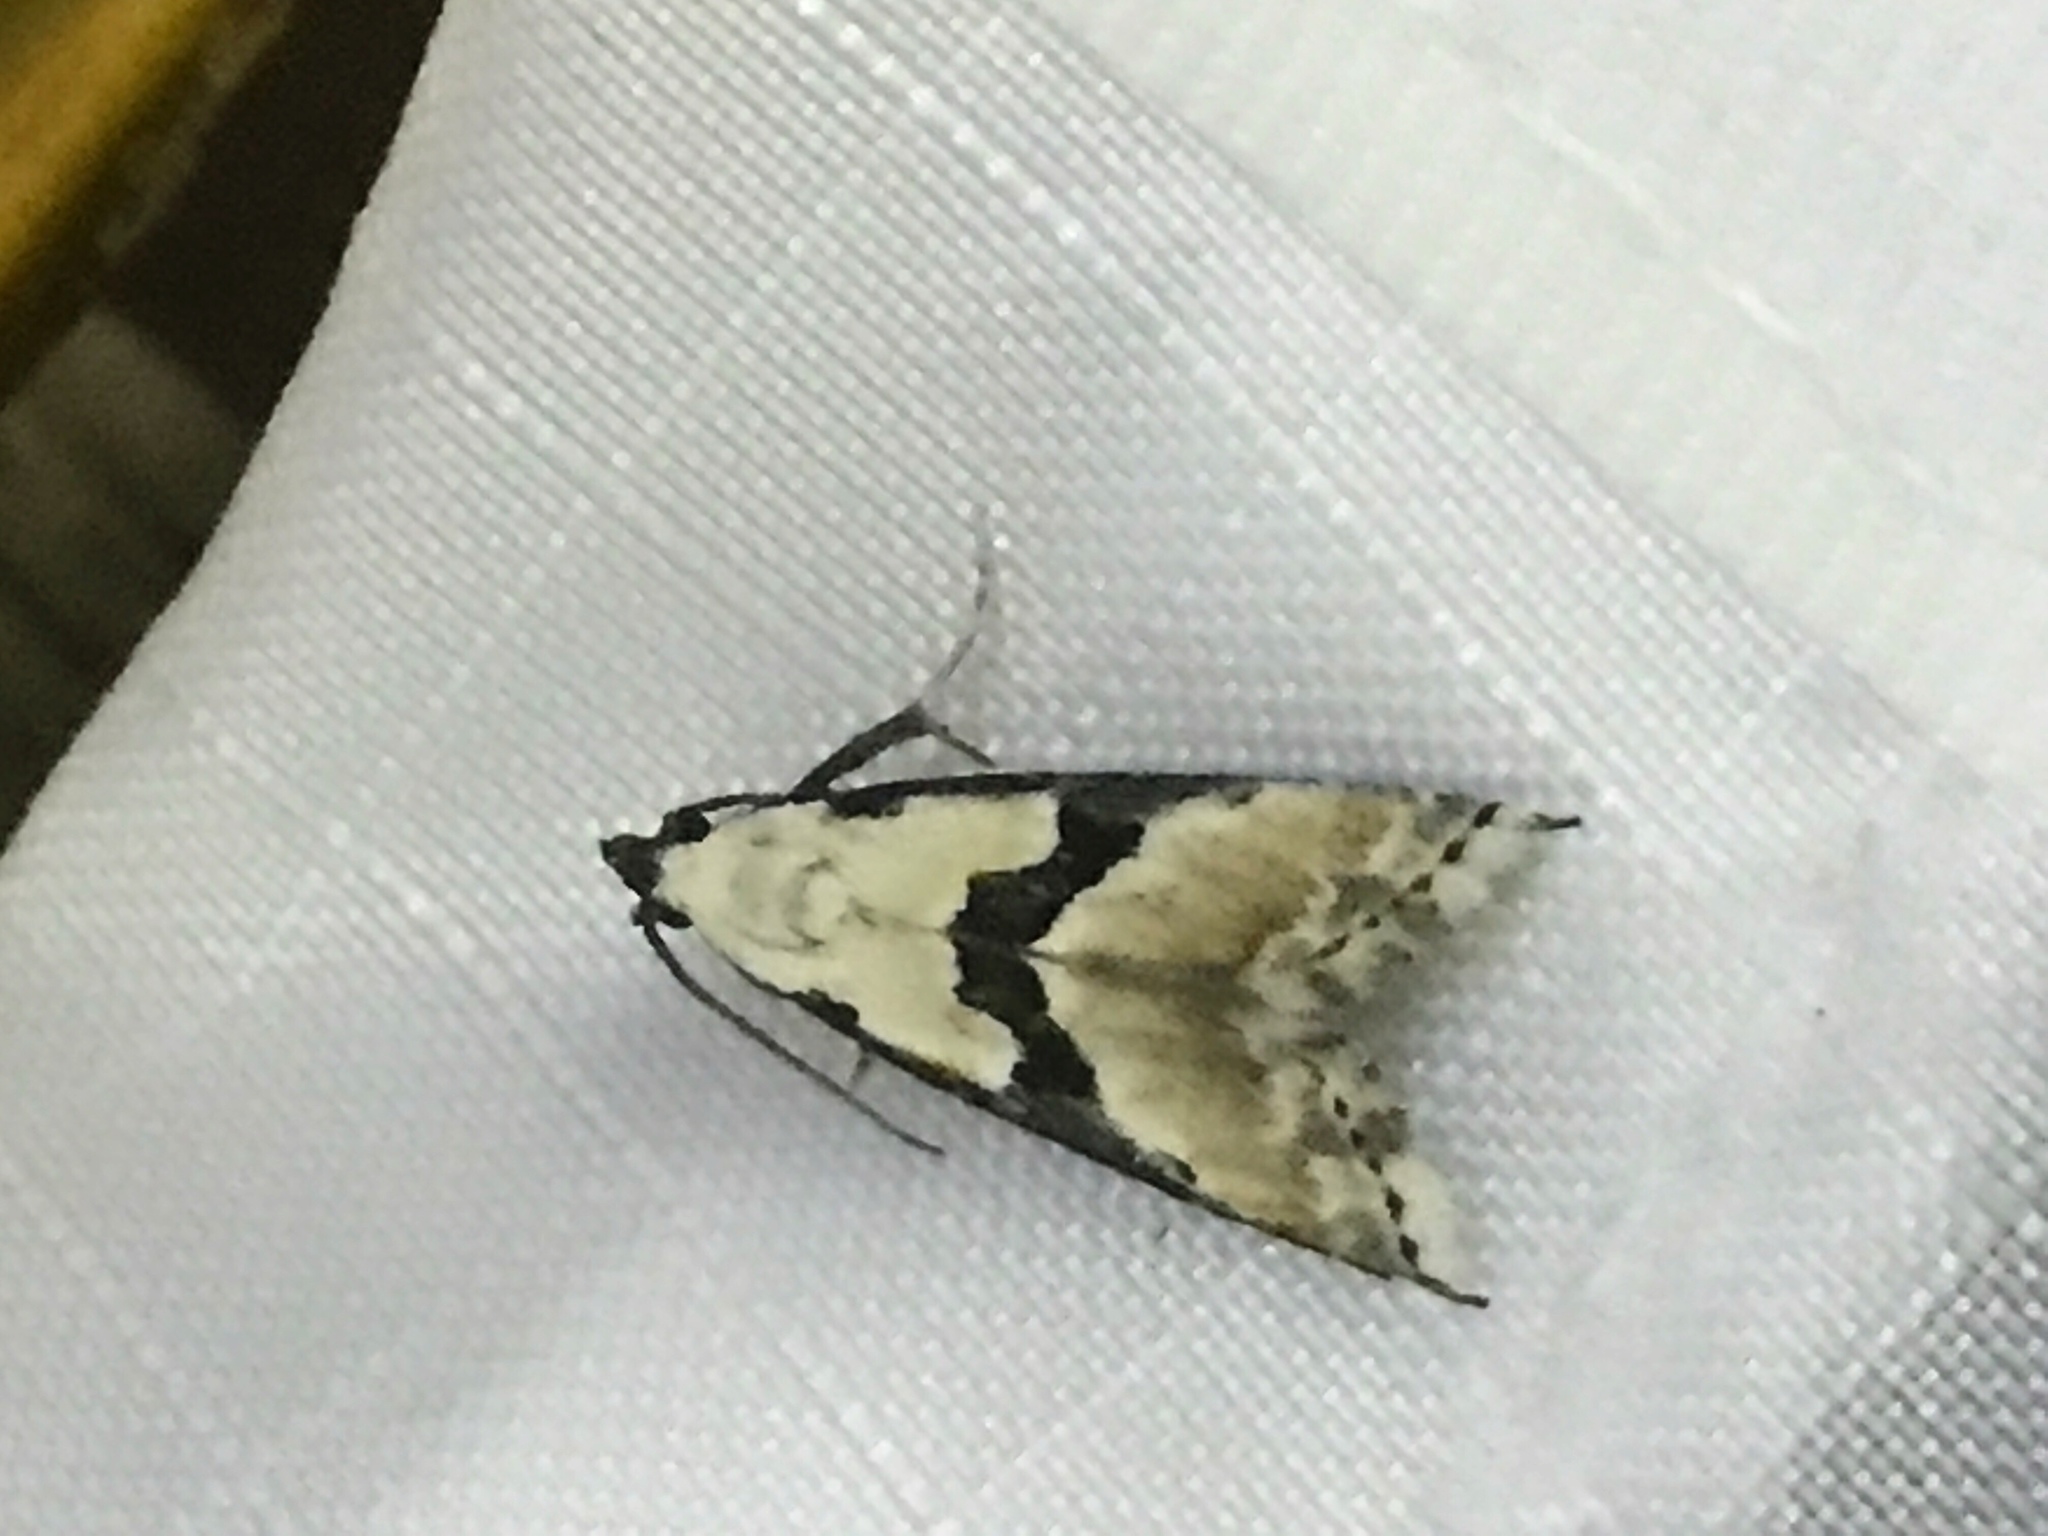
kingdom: Animalia
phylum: Arthropoda
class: Insecta
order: Lepidoptera
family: Noctuidae
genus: Nigetia
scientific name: Nigetia formosalis
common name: Thin-winged owlet
